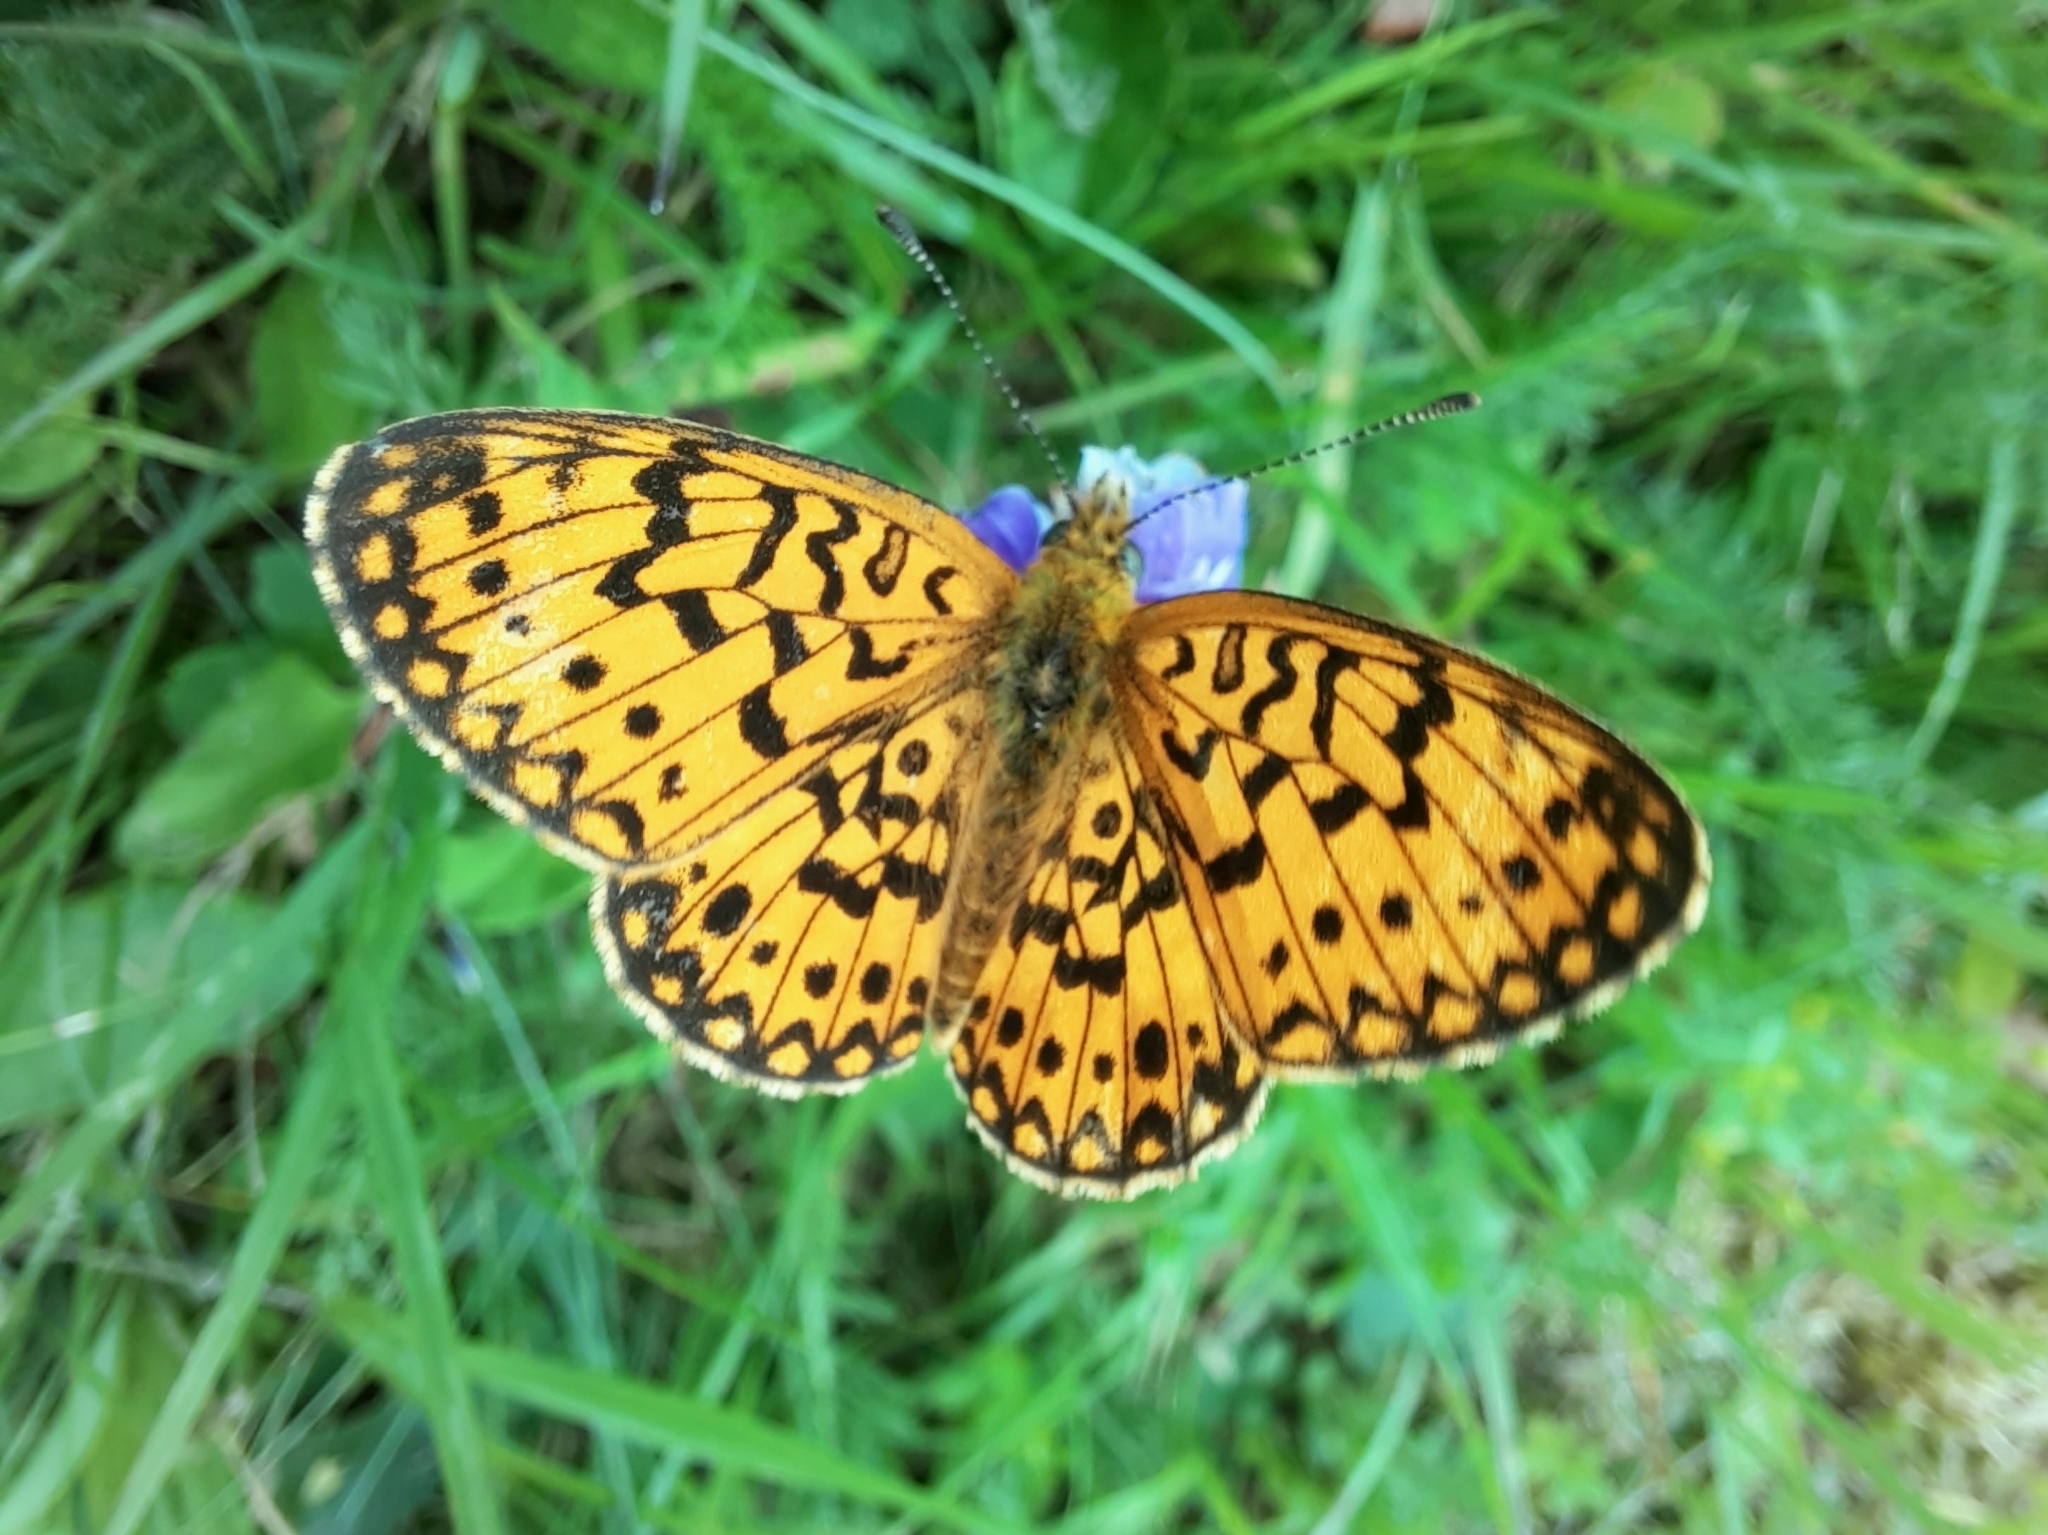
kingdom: Animalia
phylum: Arthropoda
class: Insecta
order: Lepidoptera
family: Nymphalidae
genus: Boloria
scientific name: Boloria selene
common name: Small pearl-bordered fritillary
